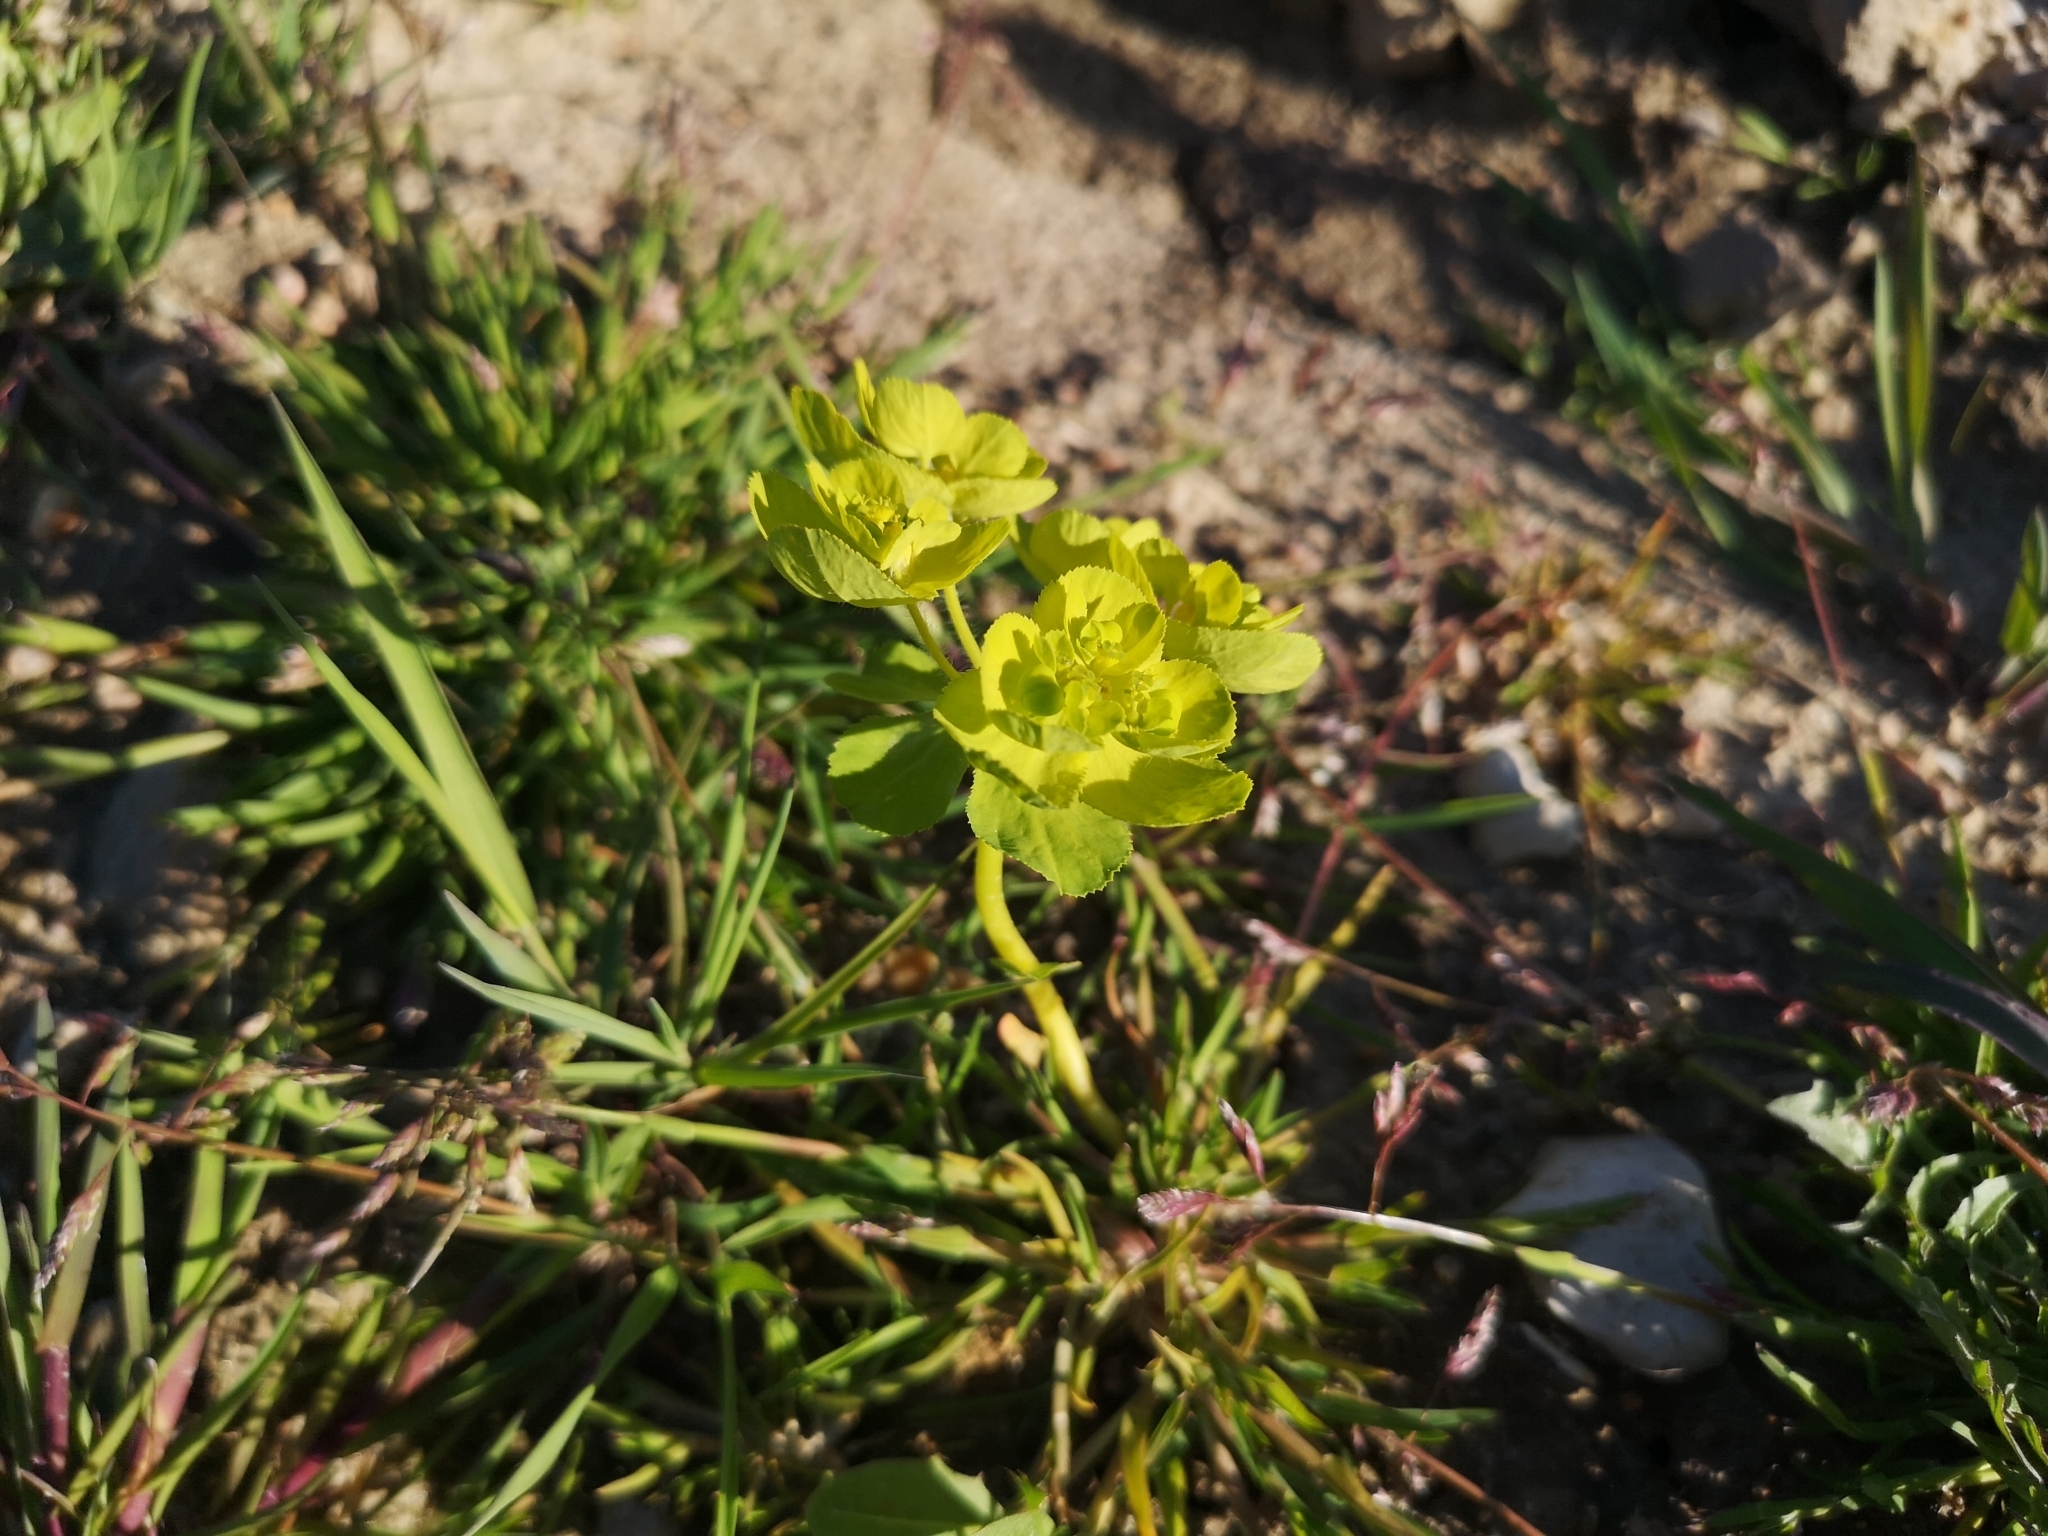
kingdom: Plantae
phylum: Tracheophyta
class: Magnoliopsida
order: Malpighiales
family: Euphorbiaceae
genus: Euphorbia
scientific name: Euphorbia helioscopia
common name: Sun spurge
